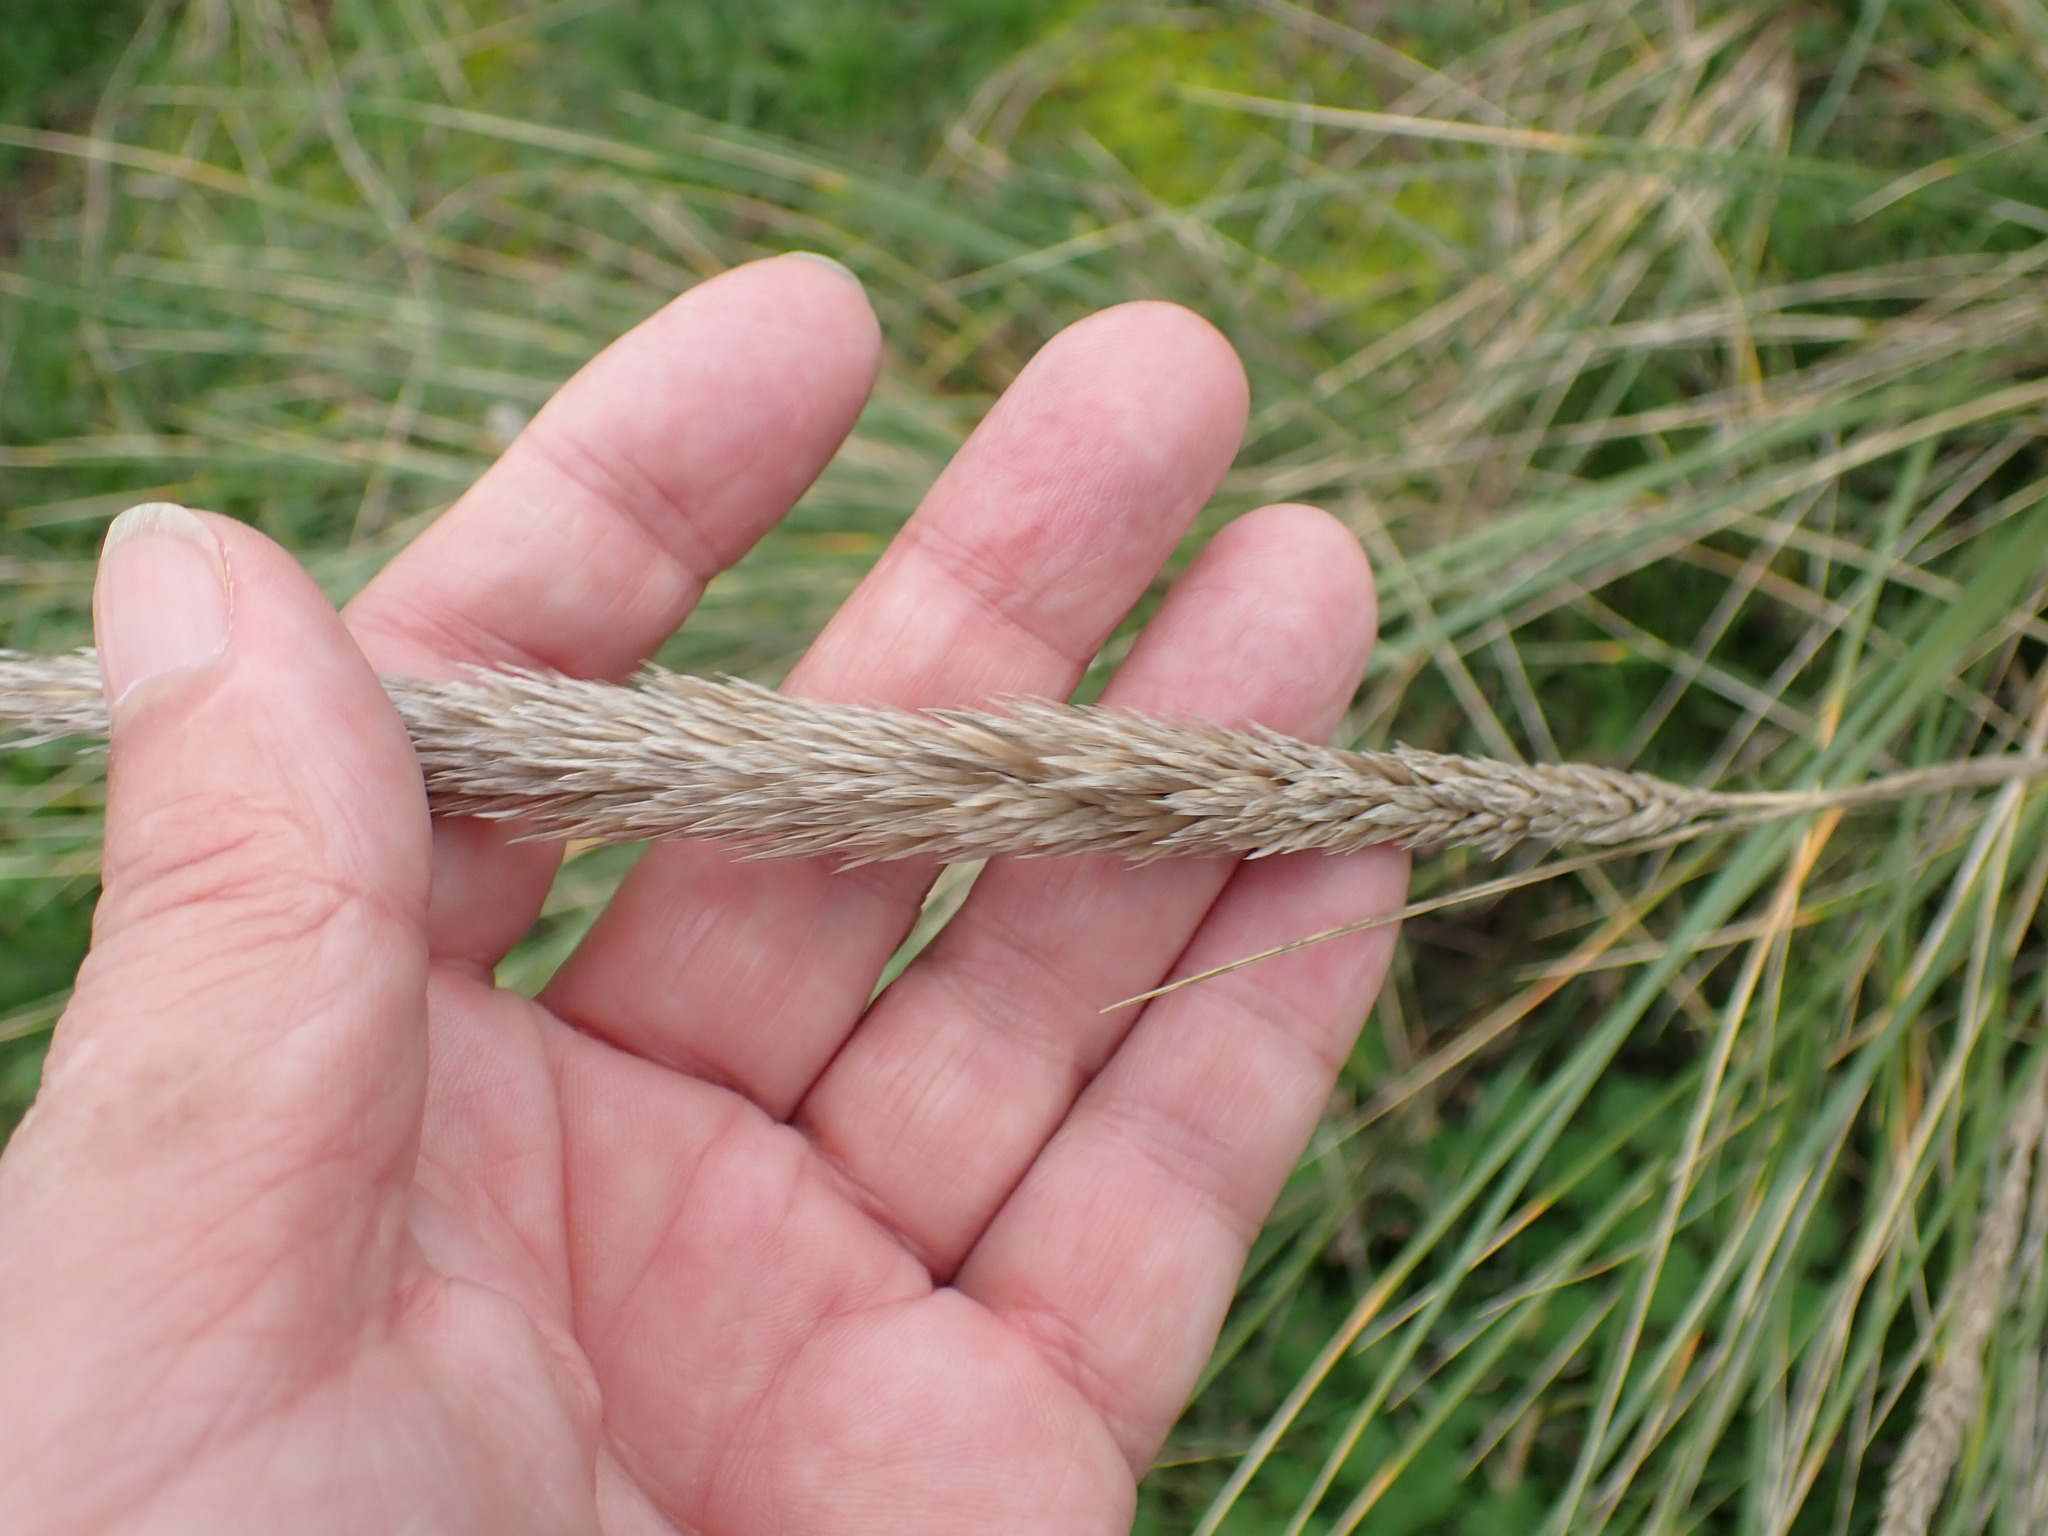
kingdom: Plantae
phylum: Tracheophyta
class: Liliopsida
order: Poales
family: Poaceae
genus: Calamagrostis
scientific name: Calamagrostis arenaria
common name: European beachgrass
